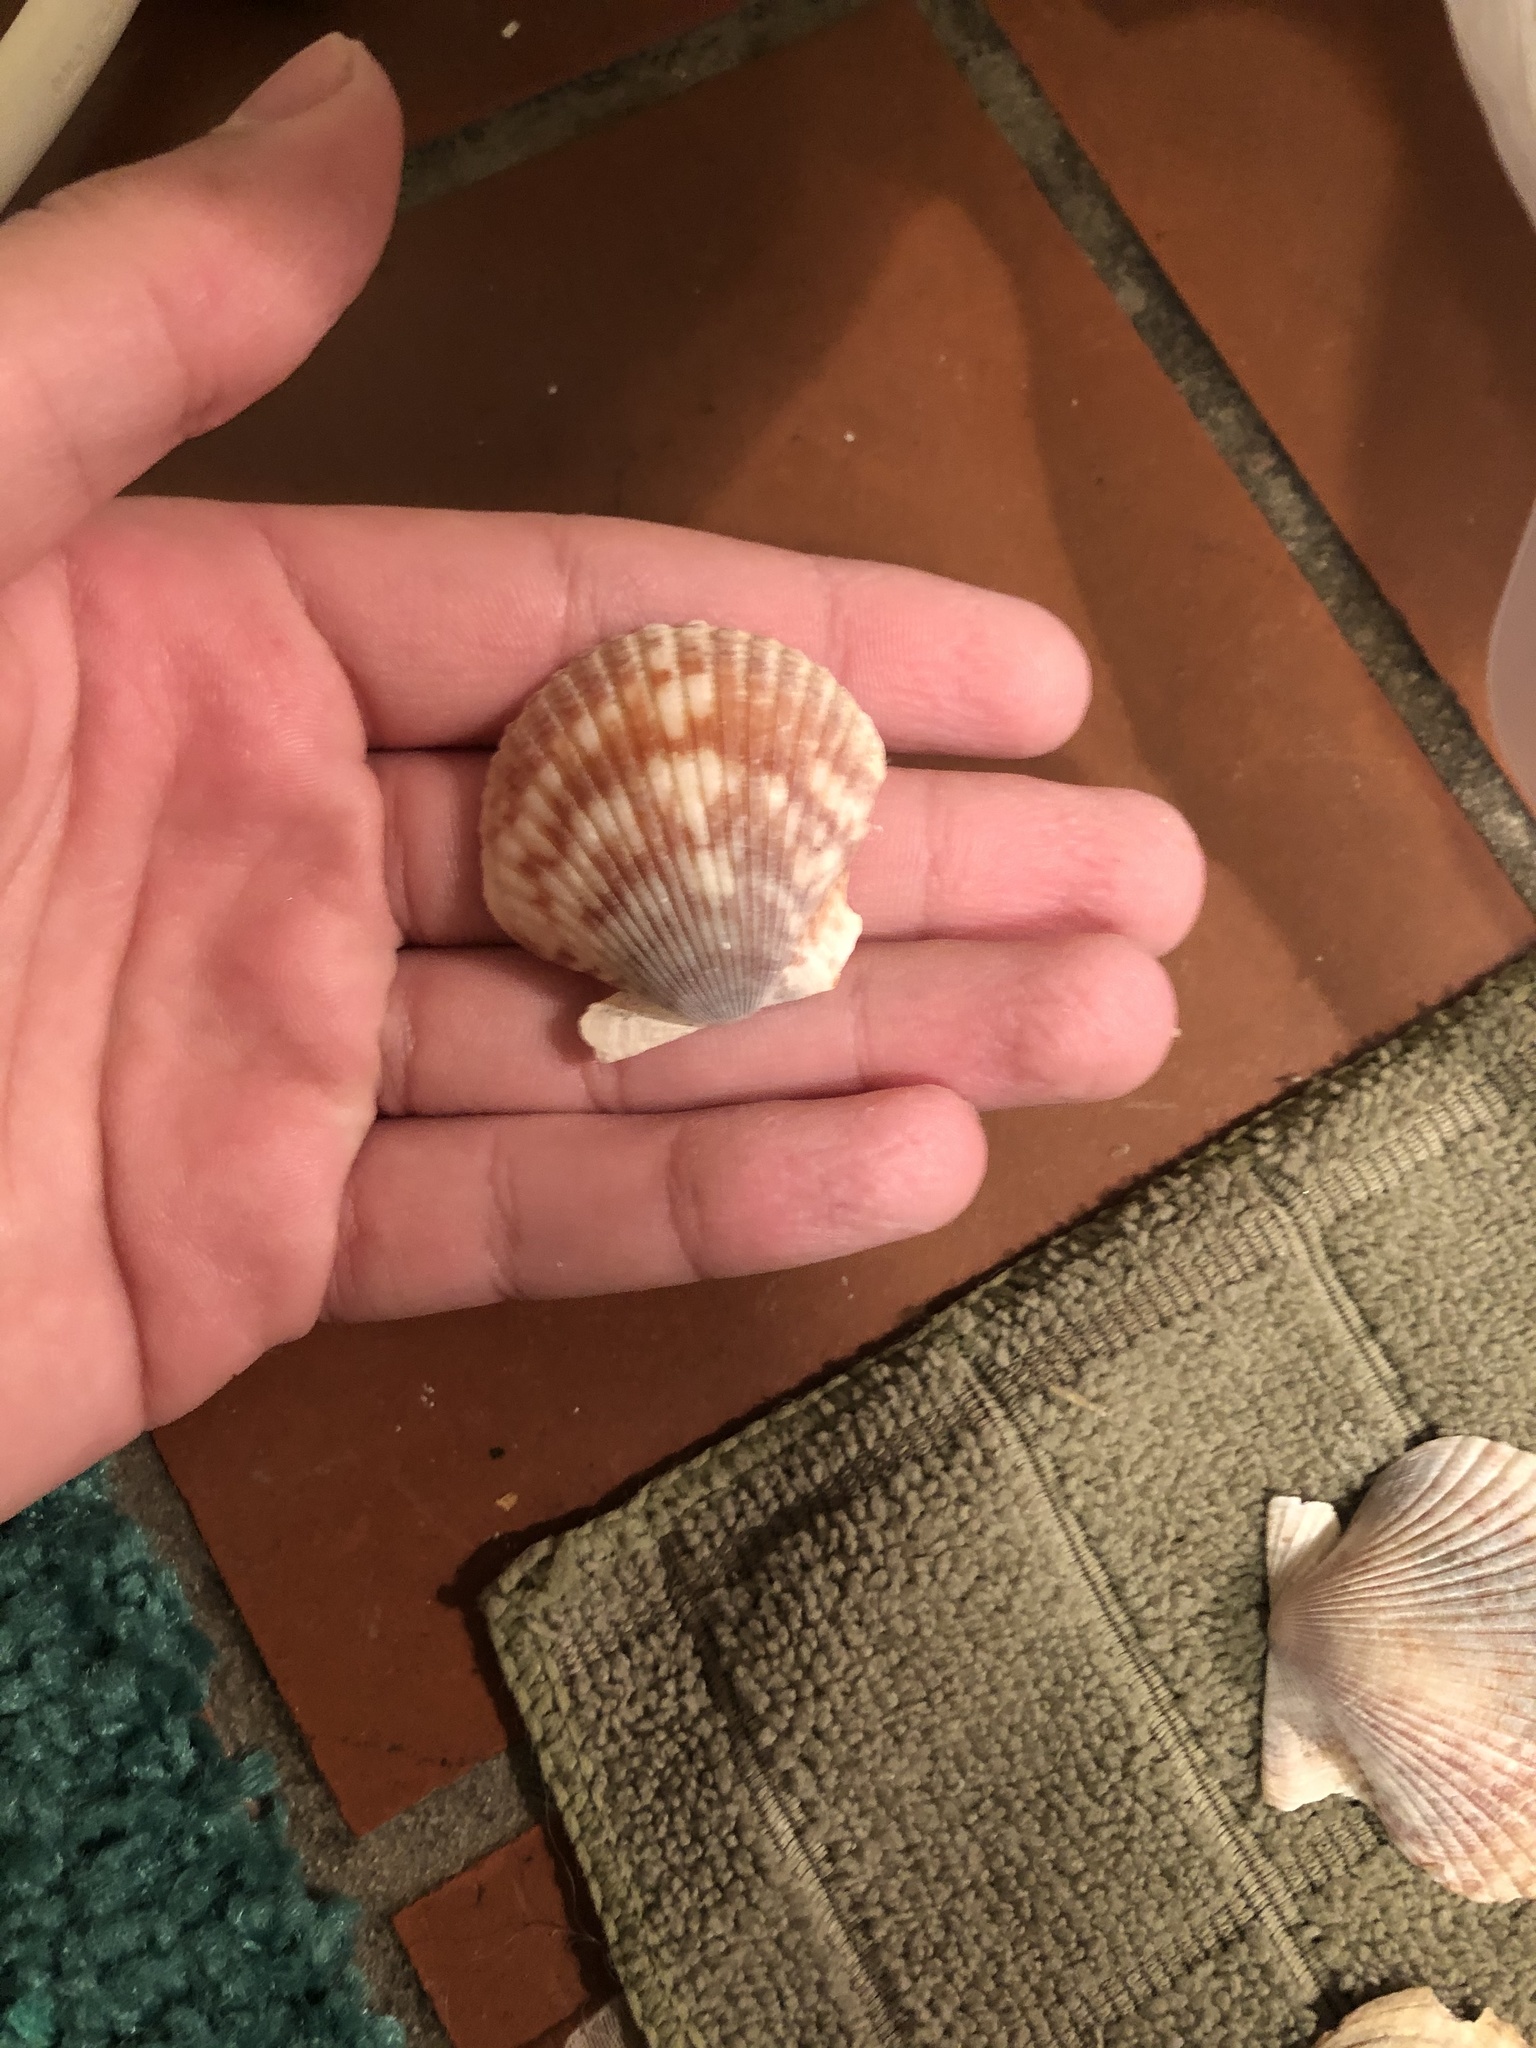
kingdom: Animalia
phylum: Mollusca
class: Bivalvia
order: Pectinida
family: Pectinidae
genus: Argopecten
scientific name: Argopecten ventricosus
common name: Catarina scallop
